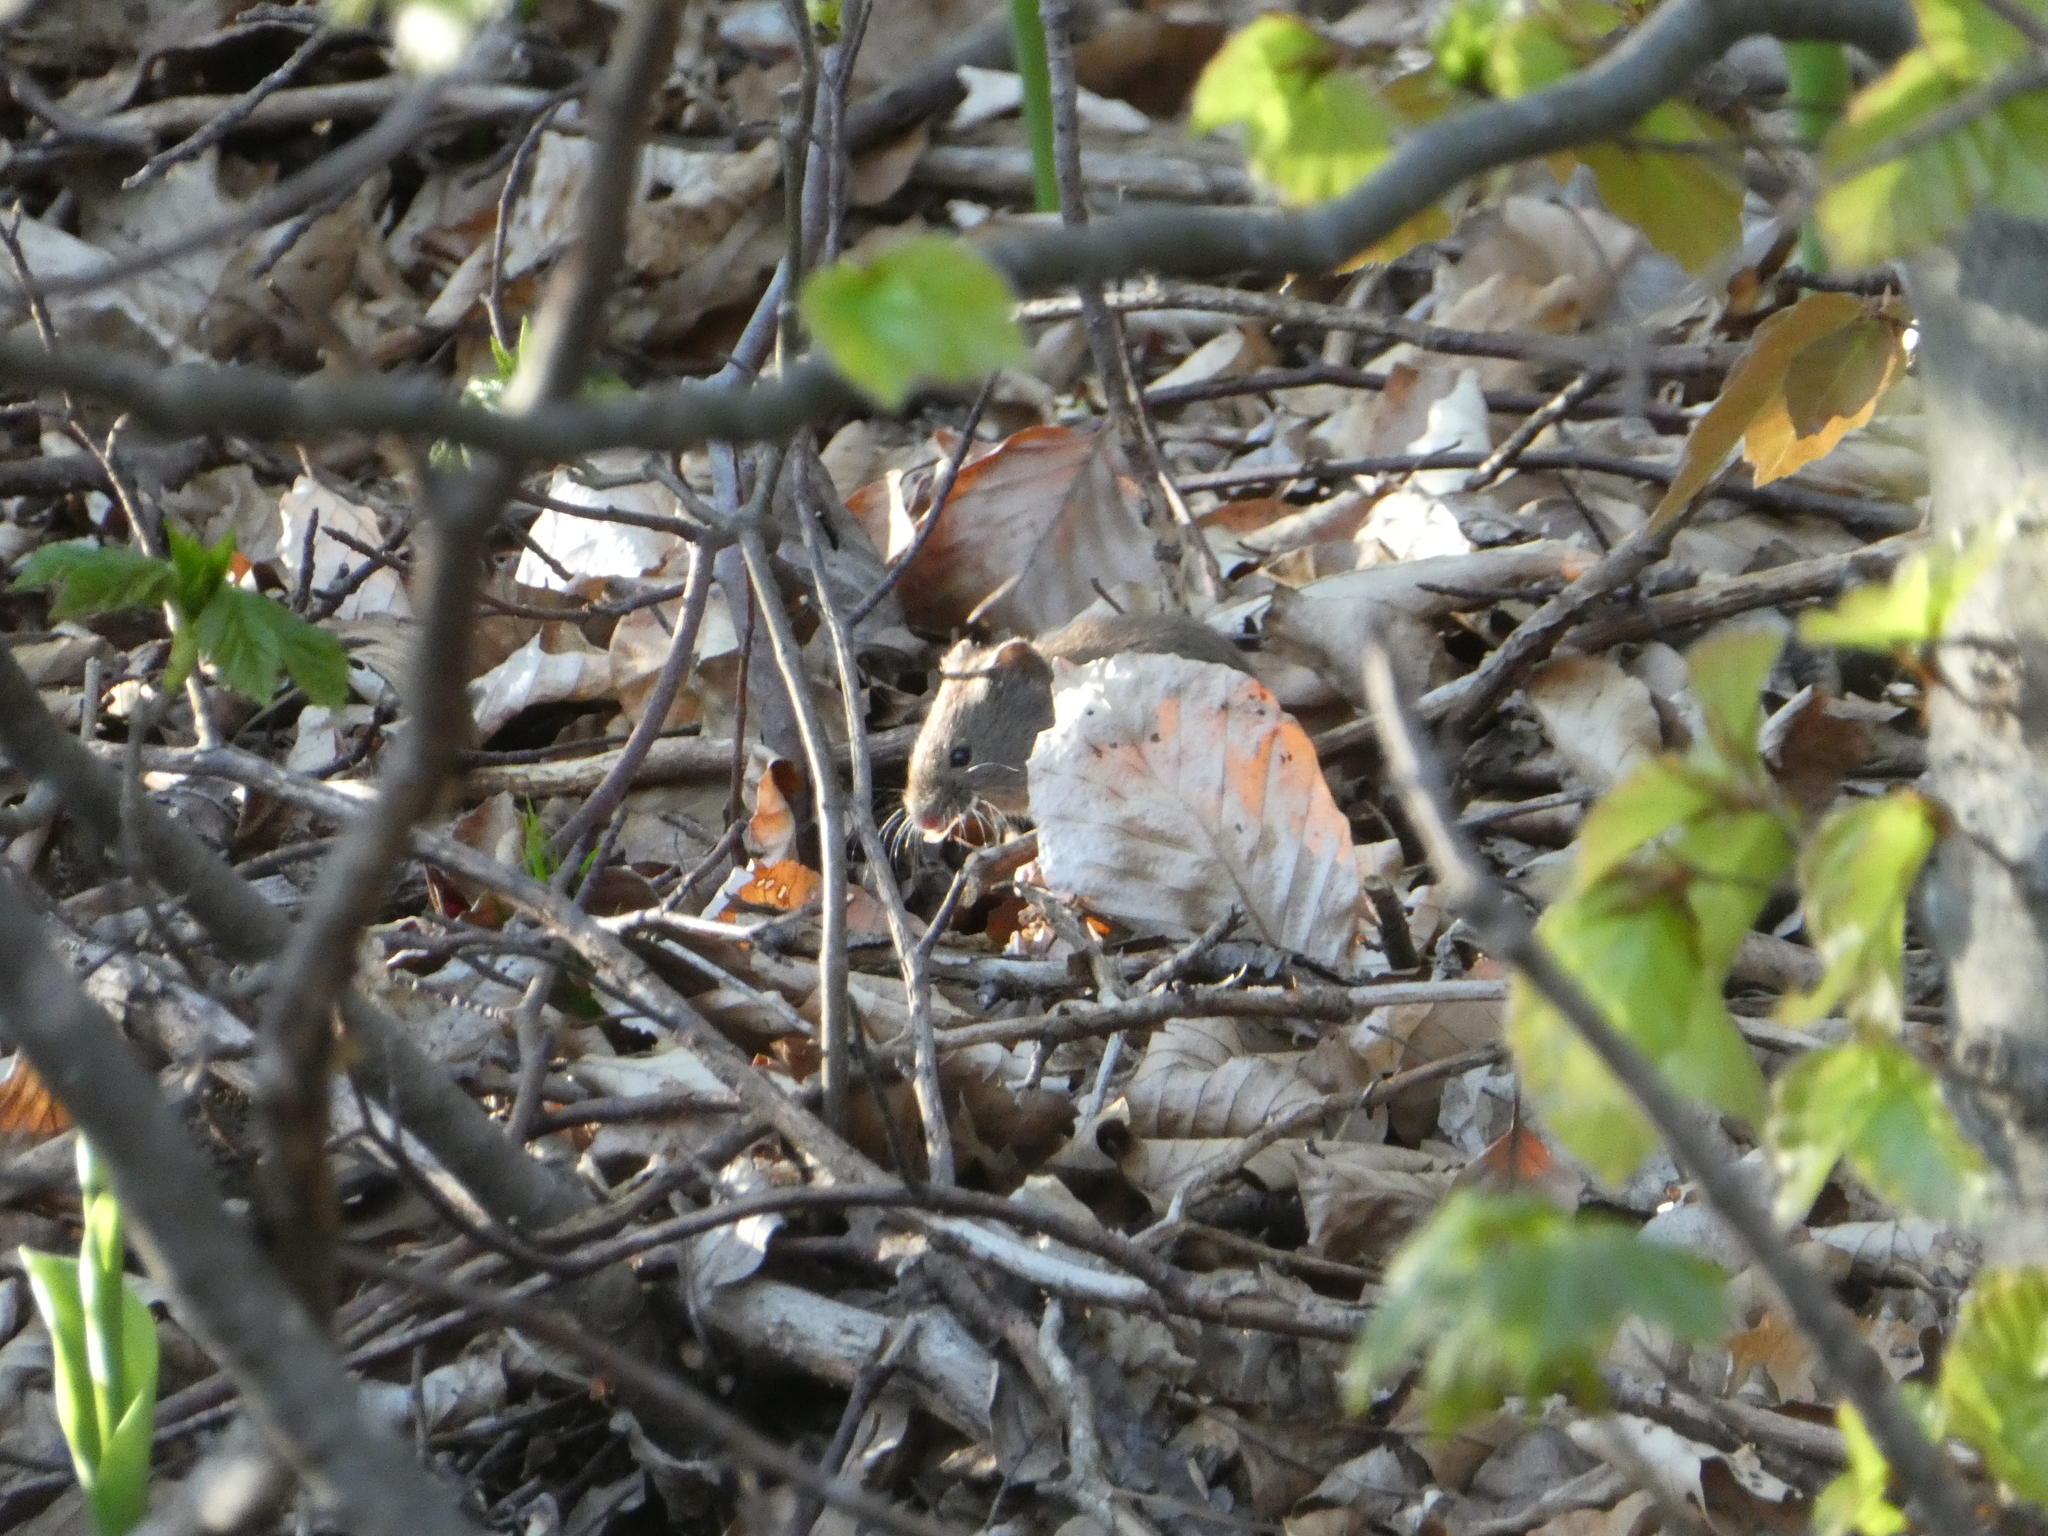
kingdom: Animalia
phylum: Chordata
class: Mammalia
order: Rodentia
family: Cricetidae
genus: Myodes
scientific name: Myodes glareolus
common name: Bank vole
